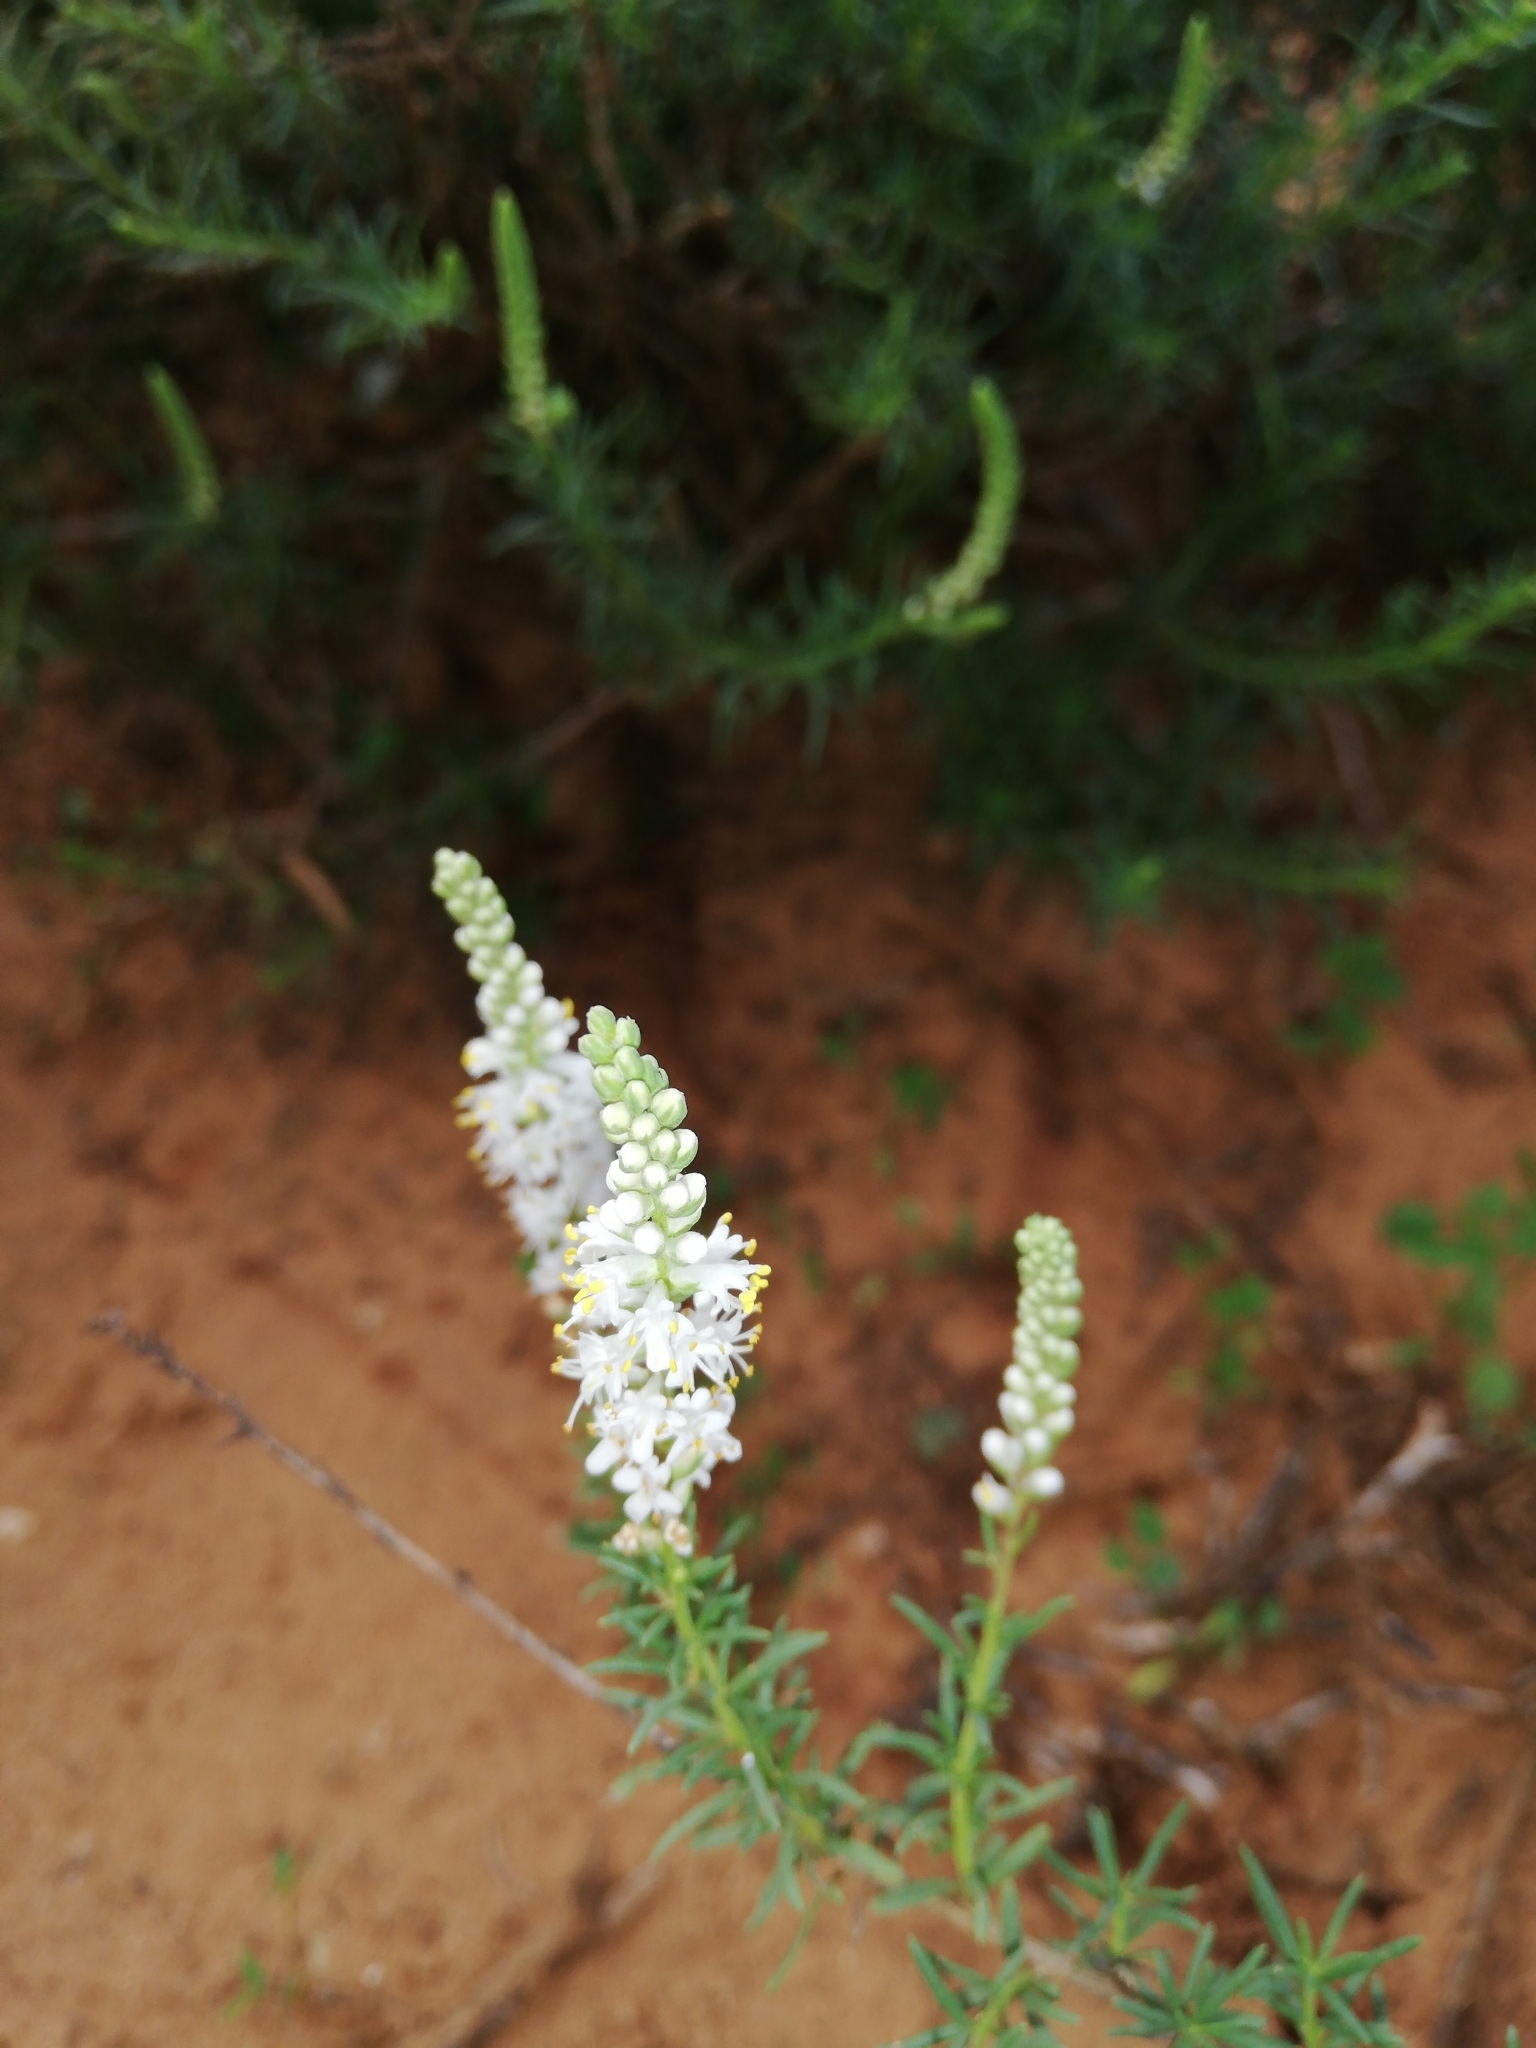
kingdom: Plantae
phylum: Tracheophyta
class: Magnoliopsida
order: Lamiales
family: Scrophulariaceae
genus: Selago
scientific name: Selago geniculata
